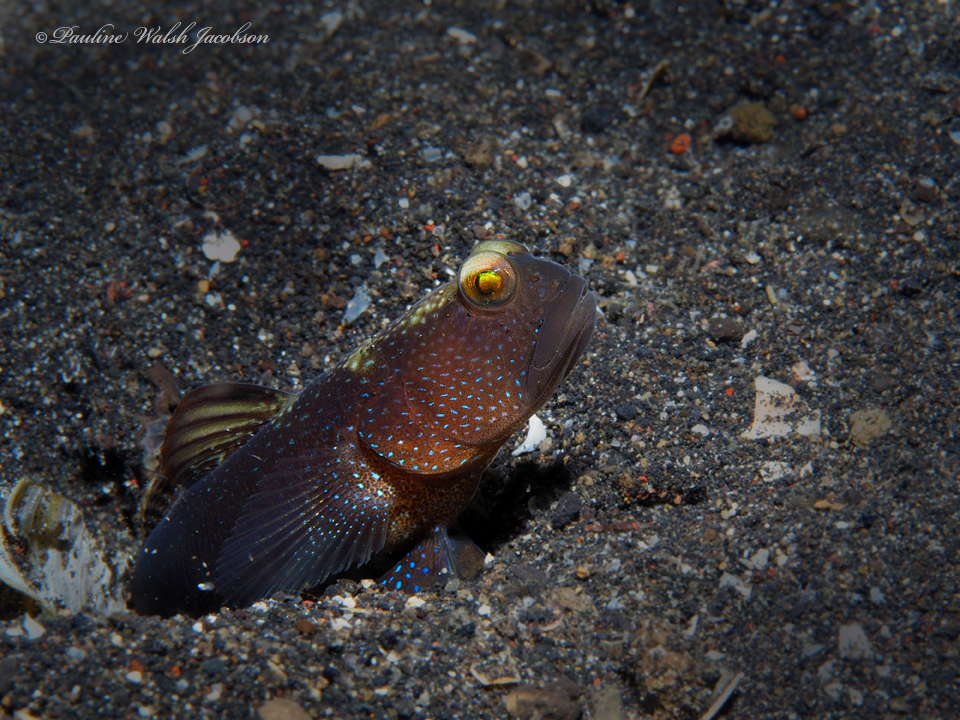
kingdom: Animalia
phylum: Chordata
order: Perciformes
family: Gobiidae
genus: Cryptocentrus
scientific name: Cryptocentrus fasciatus
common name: Barred prawn-goby
